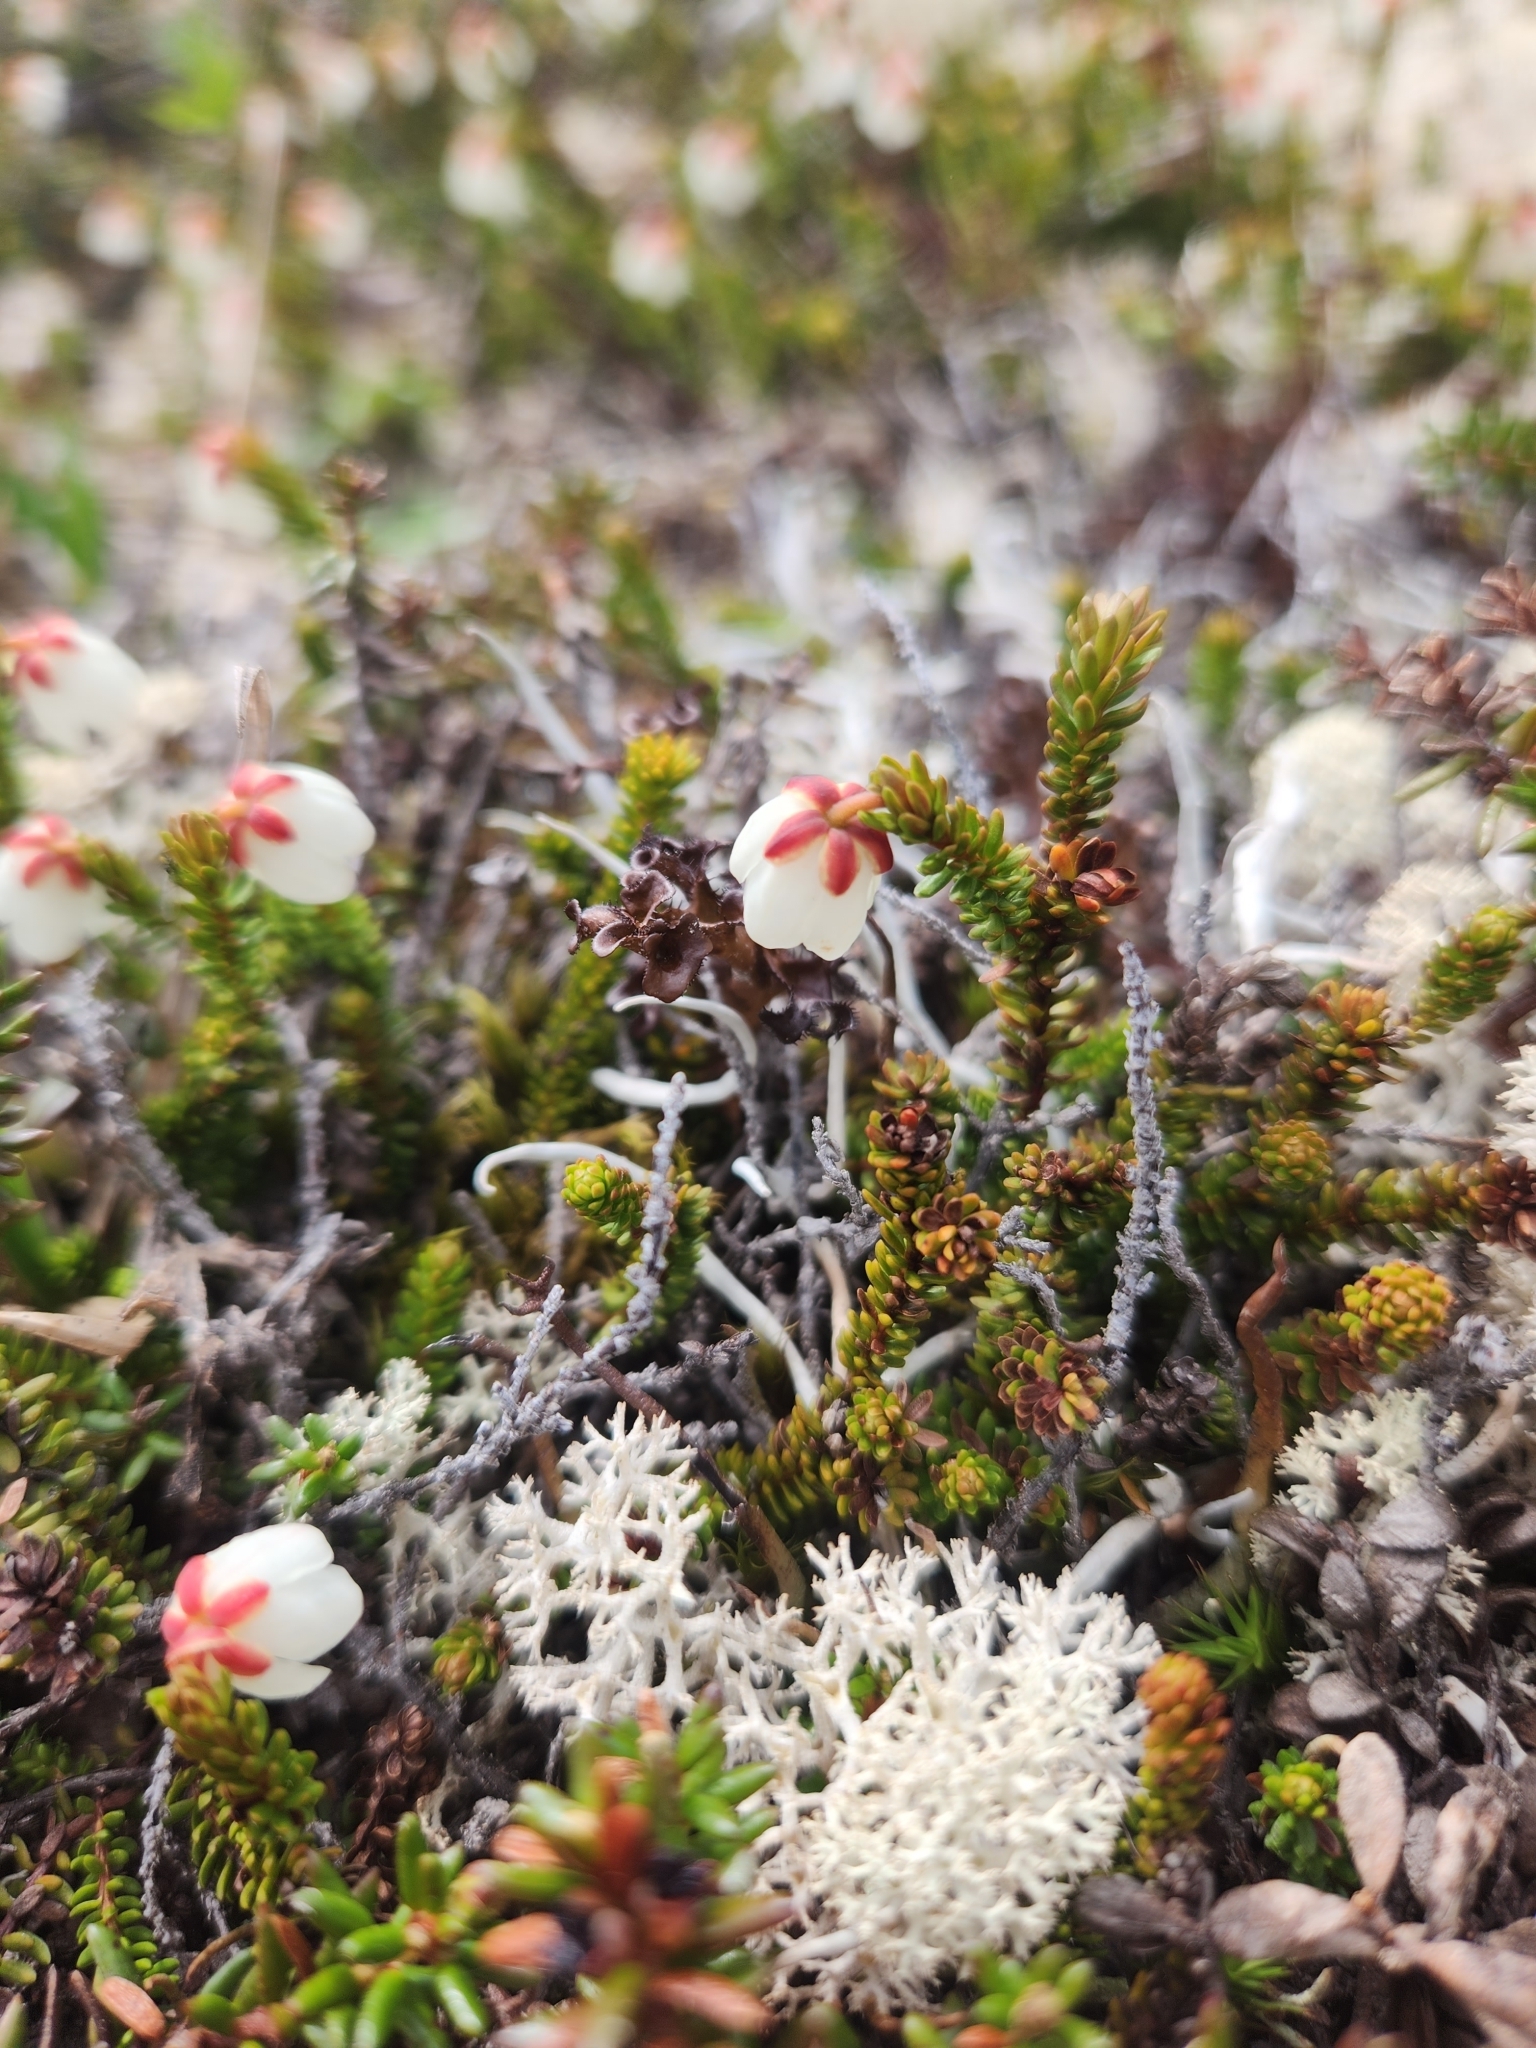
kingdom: Plantae
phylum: Tracheophyta
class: Magnoliopsida
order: Ericales
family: Ericaceae
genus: Harrimanella
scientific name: Harrimanella stelleriana
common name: Alaska bell heather
